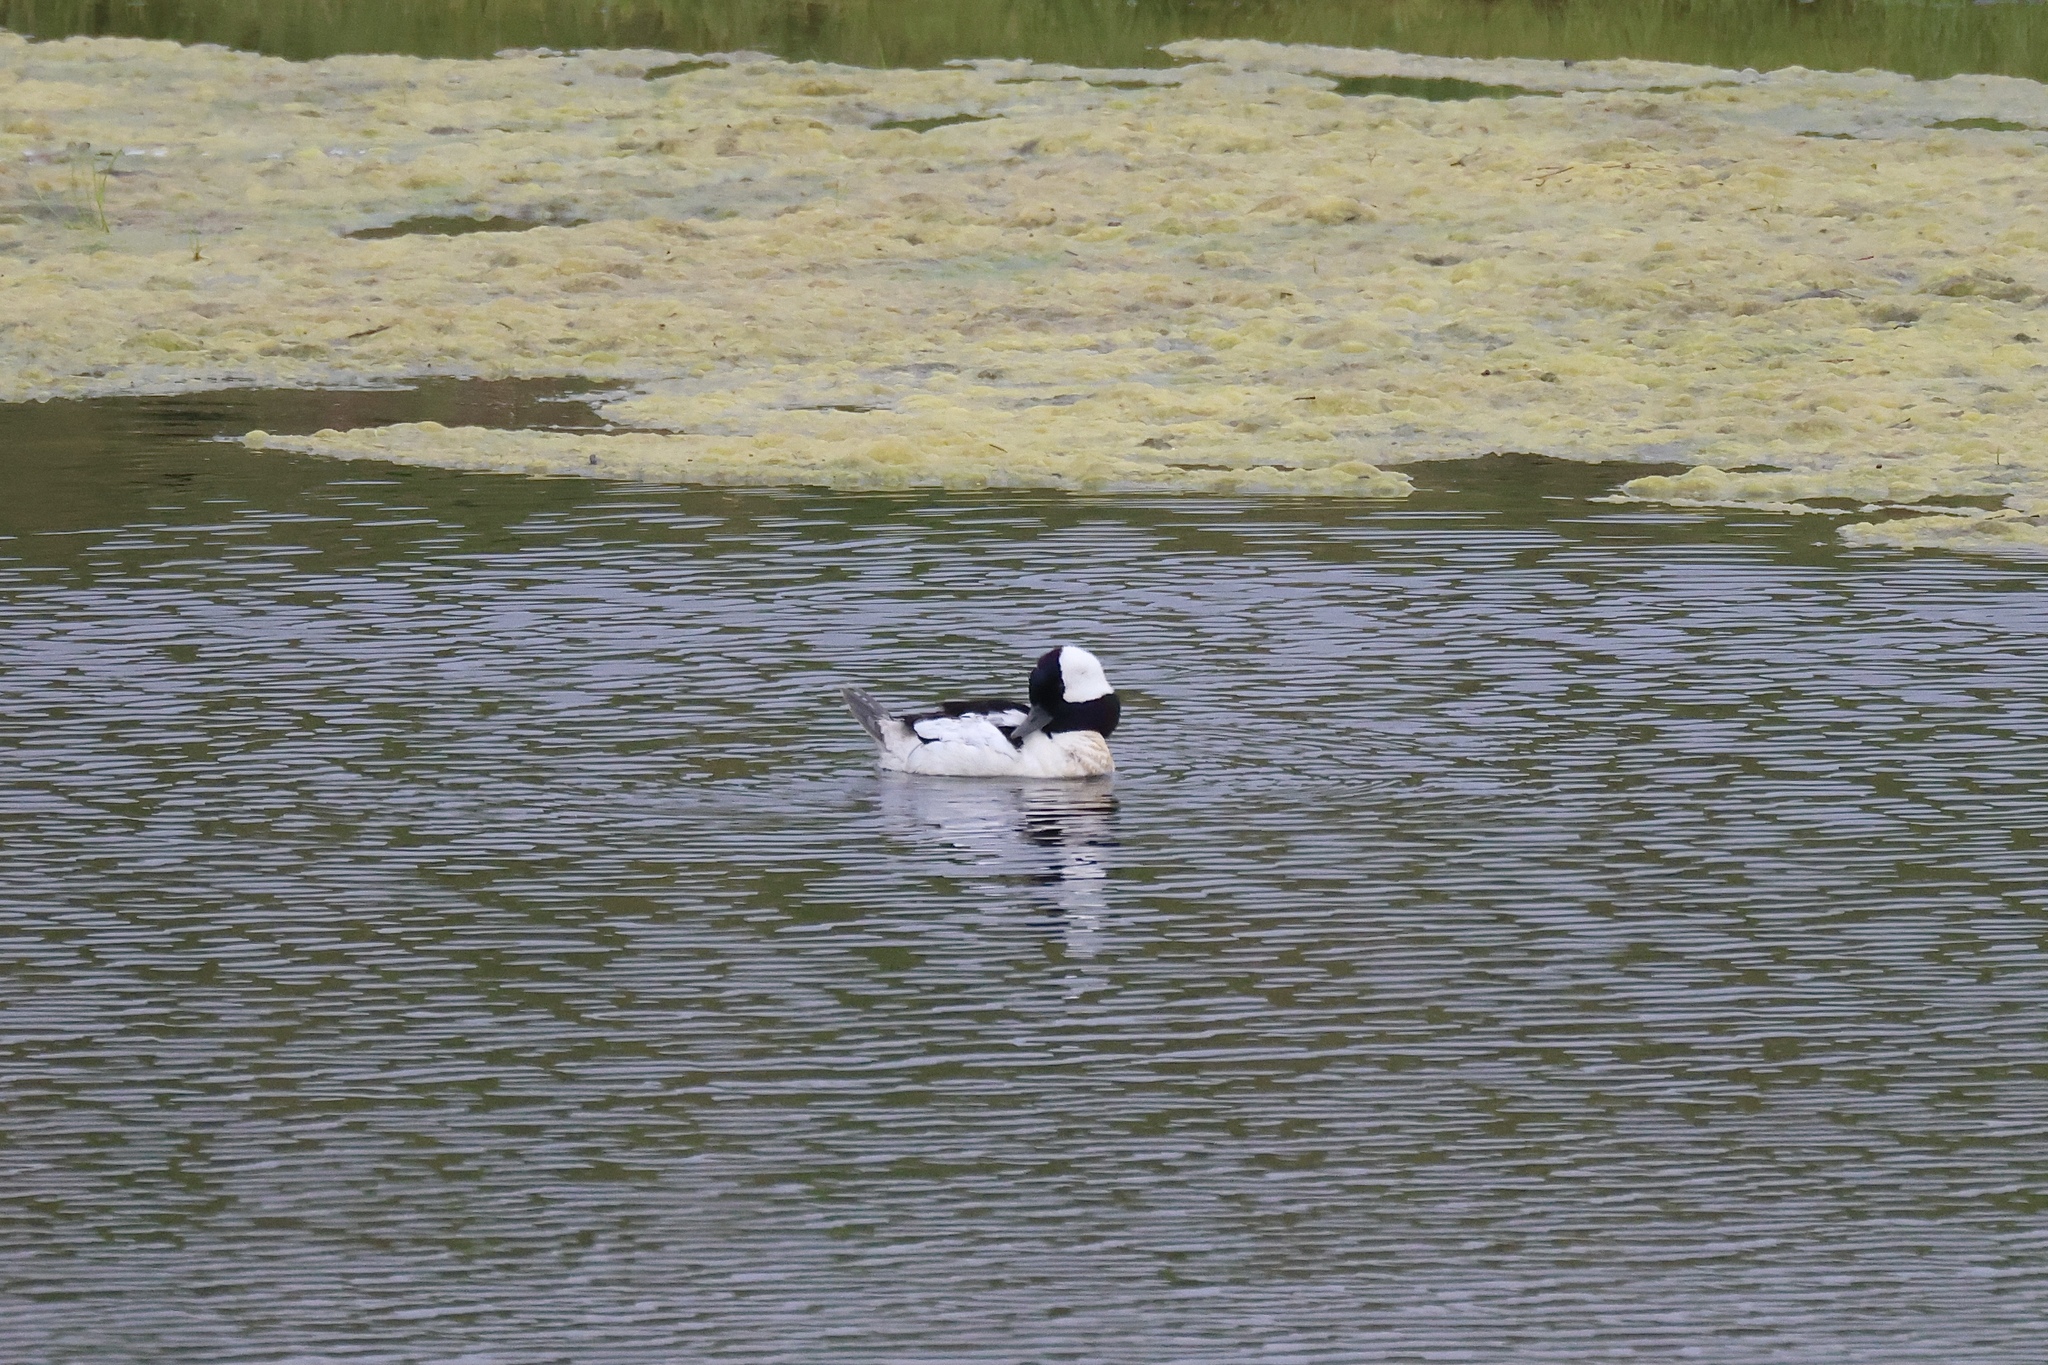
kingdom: Animalia
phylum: Chordata
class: Aves
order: Anseriformes
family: Anatidae
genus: Bucephala
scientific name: Bucephala albeola
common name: Bufflehead
